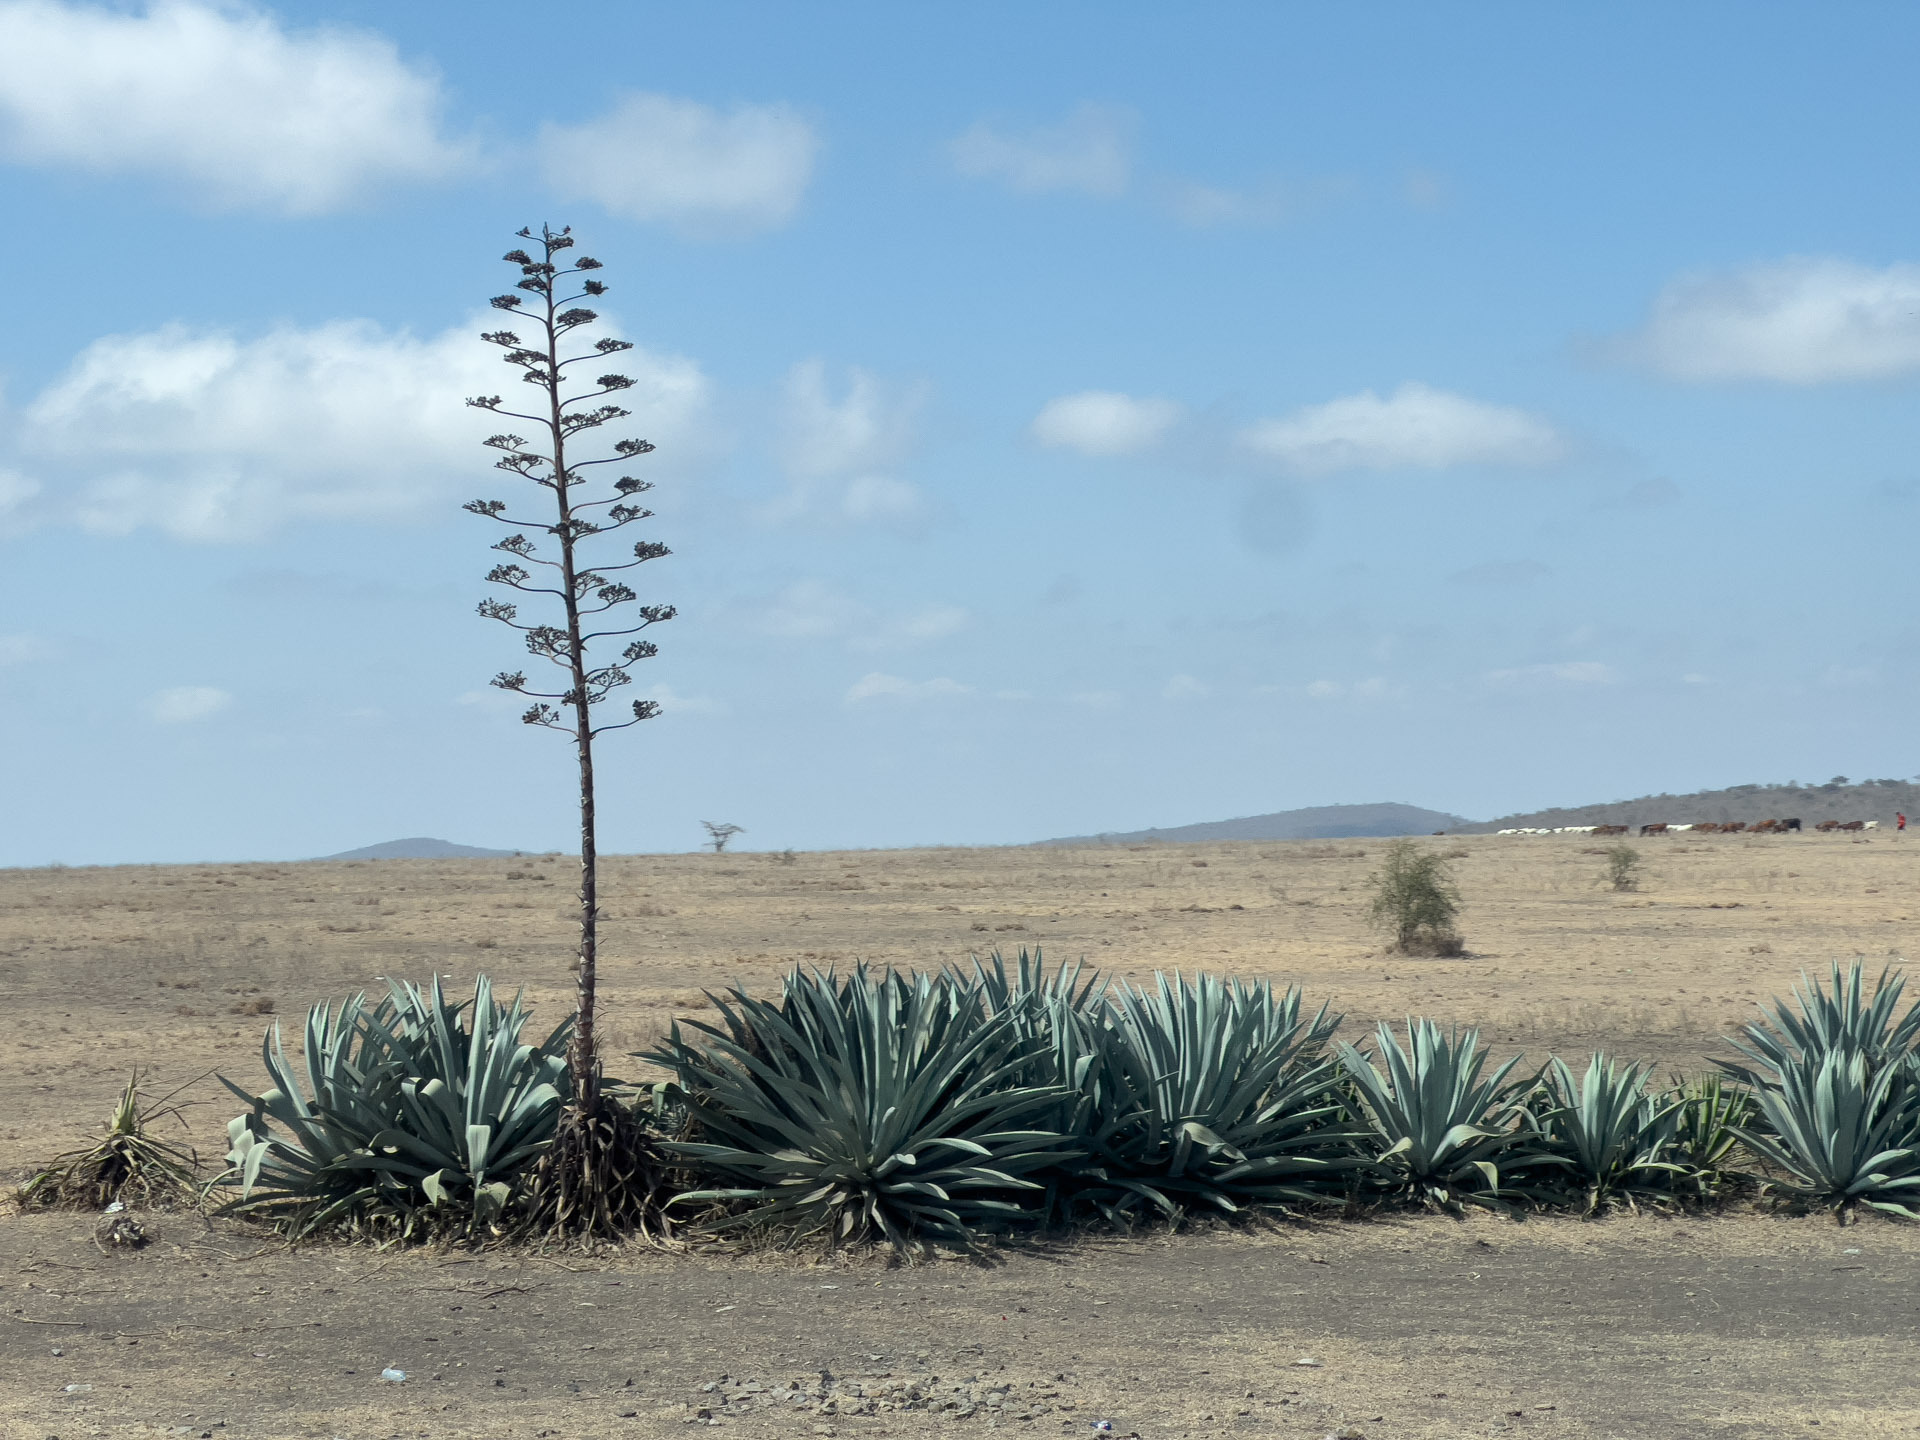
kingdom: Plantae
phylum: Tracheophyta
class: Liliopsida
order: Asparagales
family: Asparagaceae
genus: Agave
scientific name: Agave americana
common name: Centuryplant
